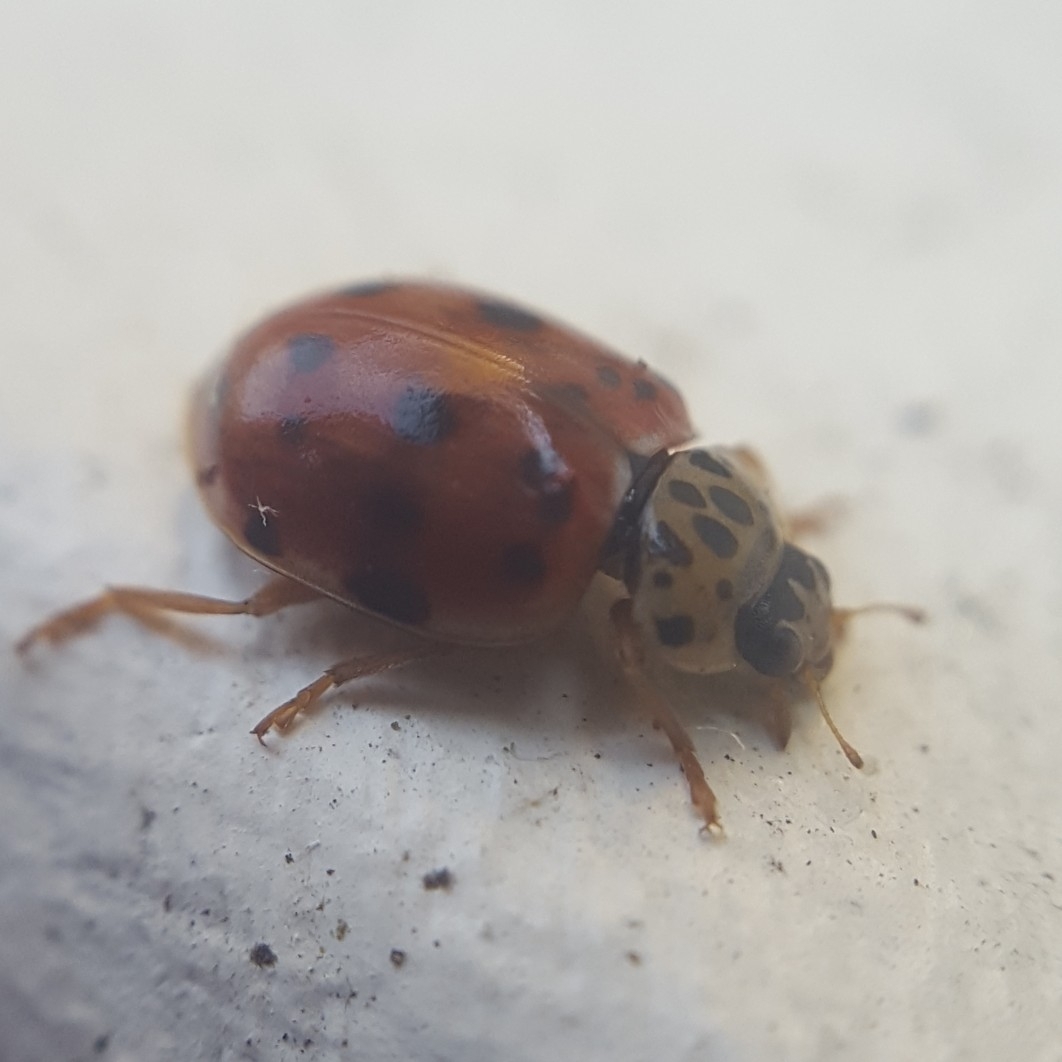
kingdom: Animalia
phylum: Arthropoda
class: Insecta
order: Coleoptera
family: Coccinellidae
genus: Harmonia
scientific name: Harmonia quadripunctata
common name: Cream-streaked ladybird
